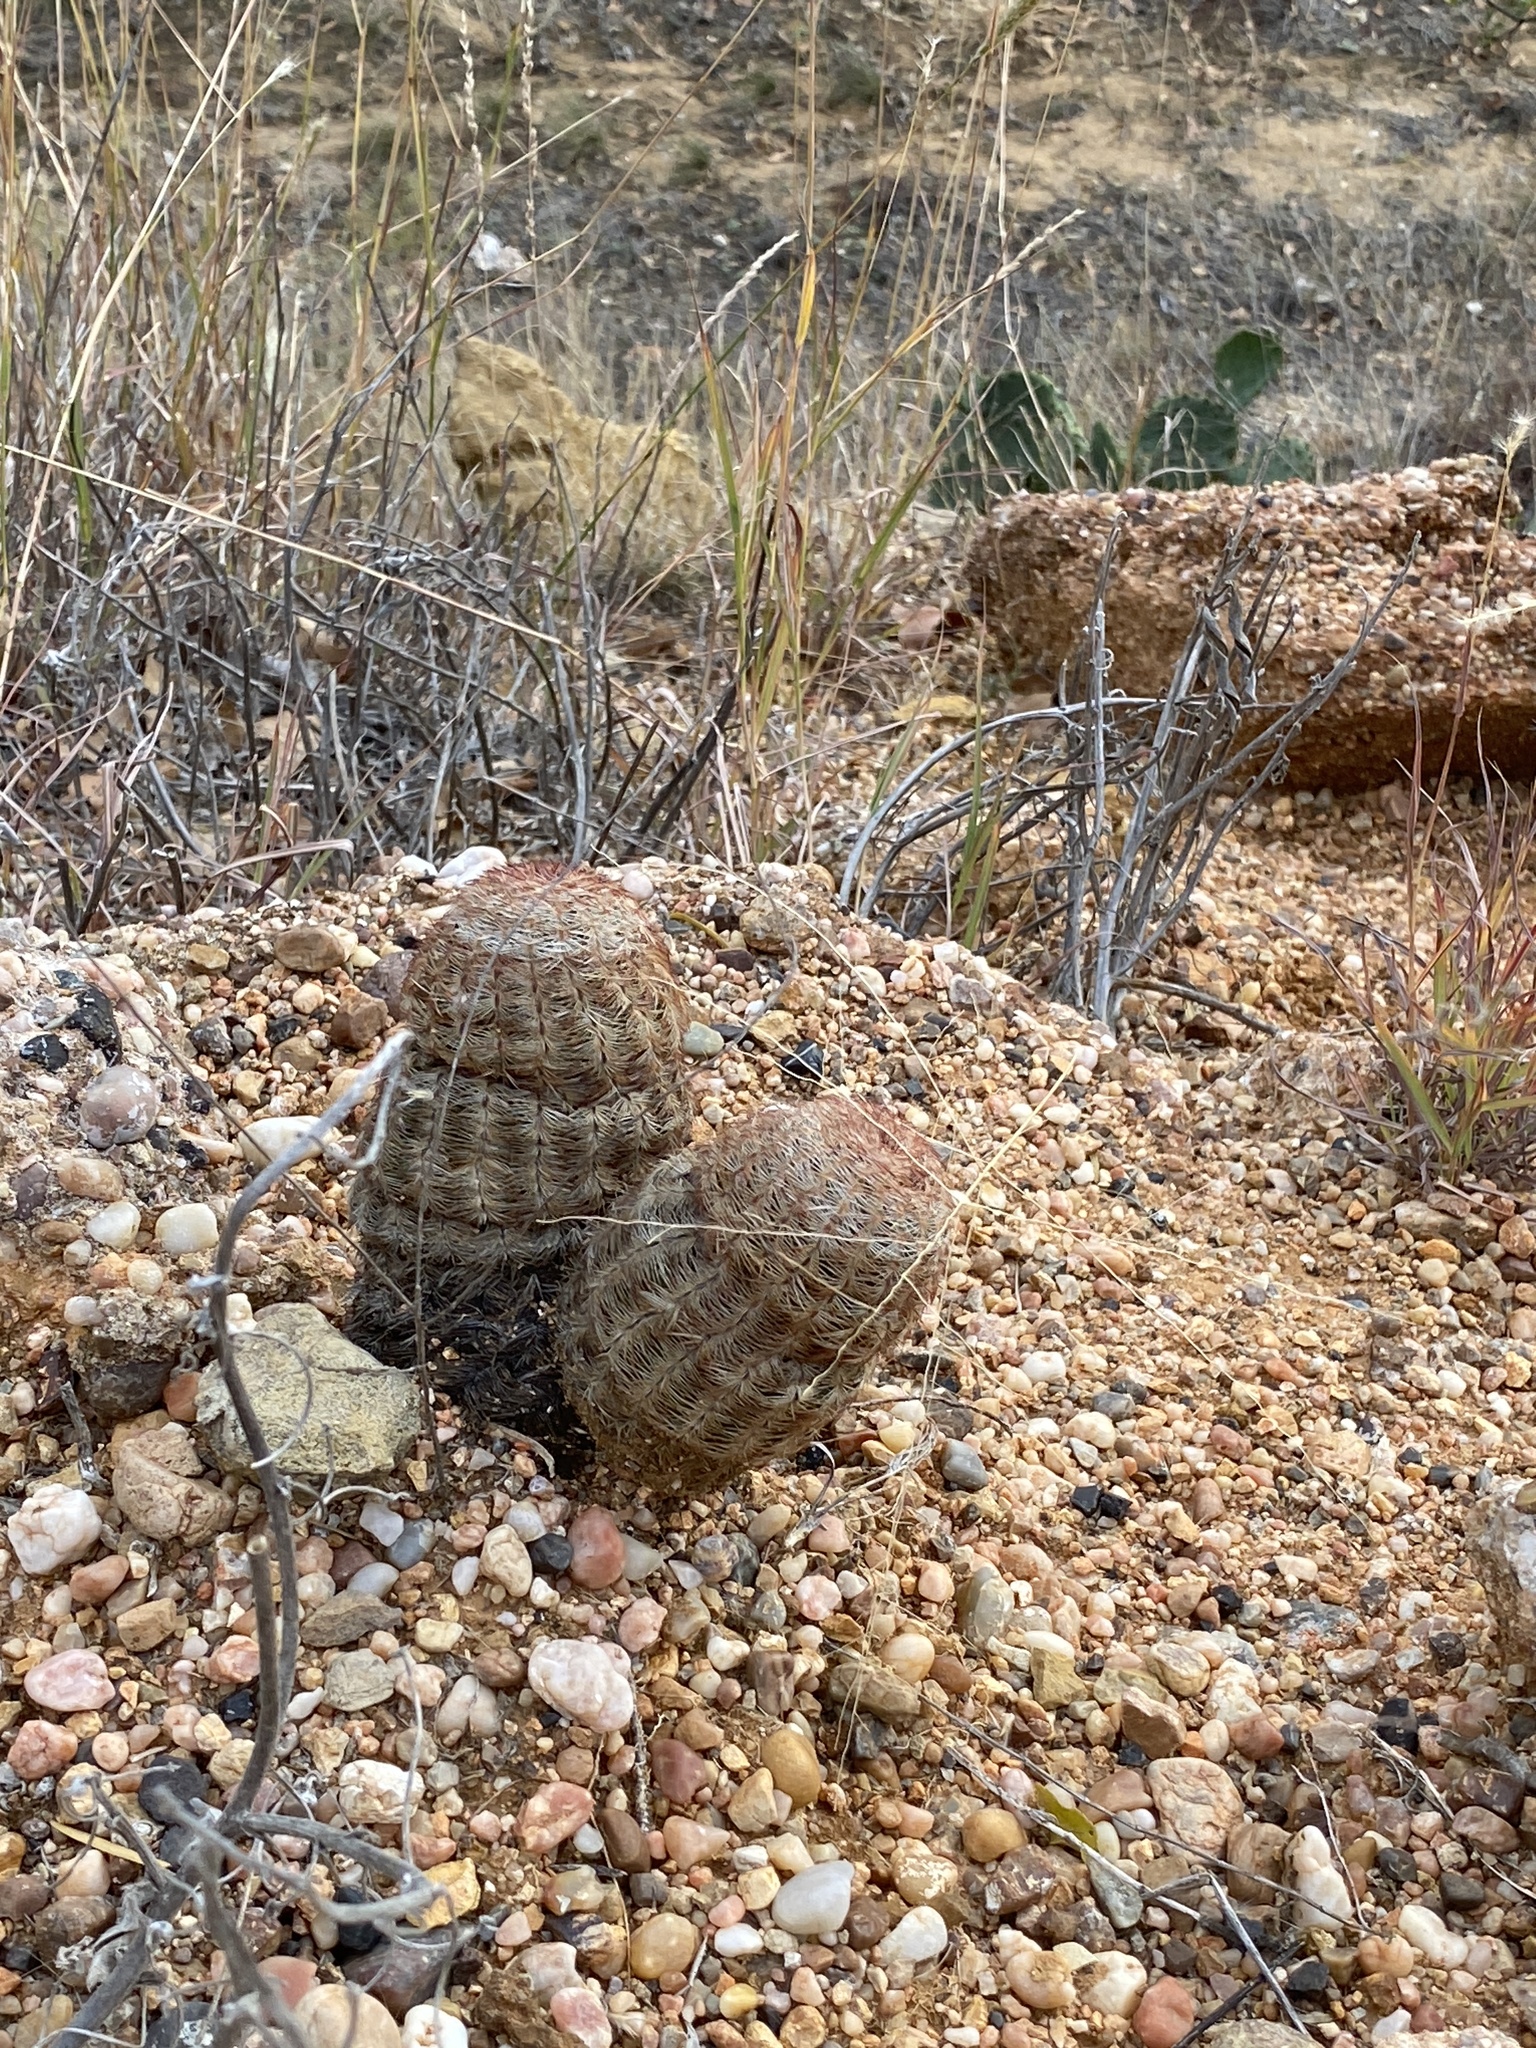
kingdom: Plantae
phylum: Tracheophyta
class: Magnoliopsida
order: Caryophyllales
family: Cactaceae
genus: Echinocereus
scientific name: Echinocereus reichenbachii
